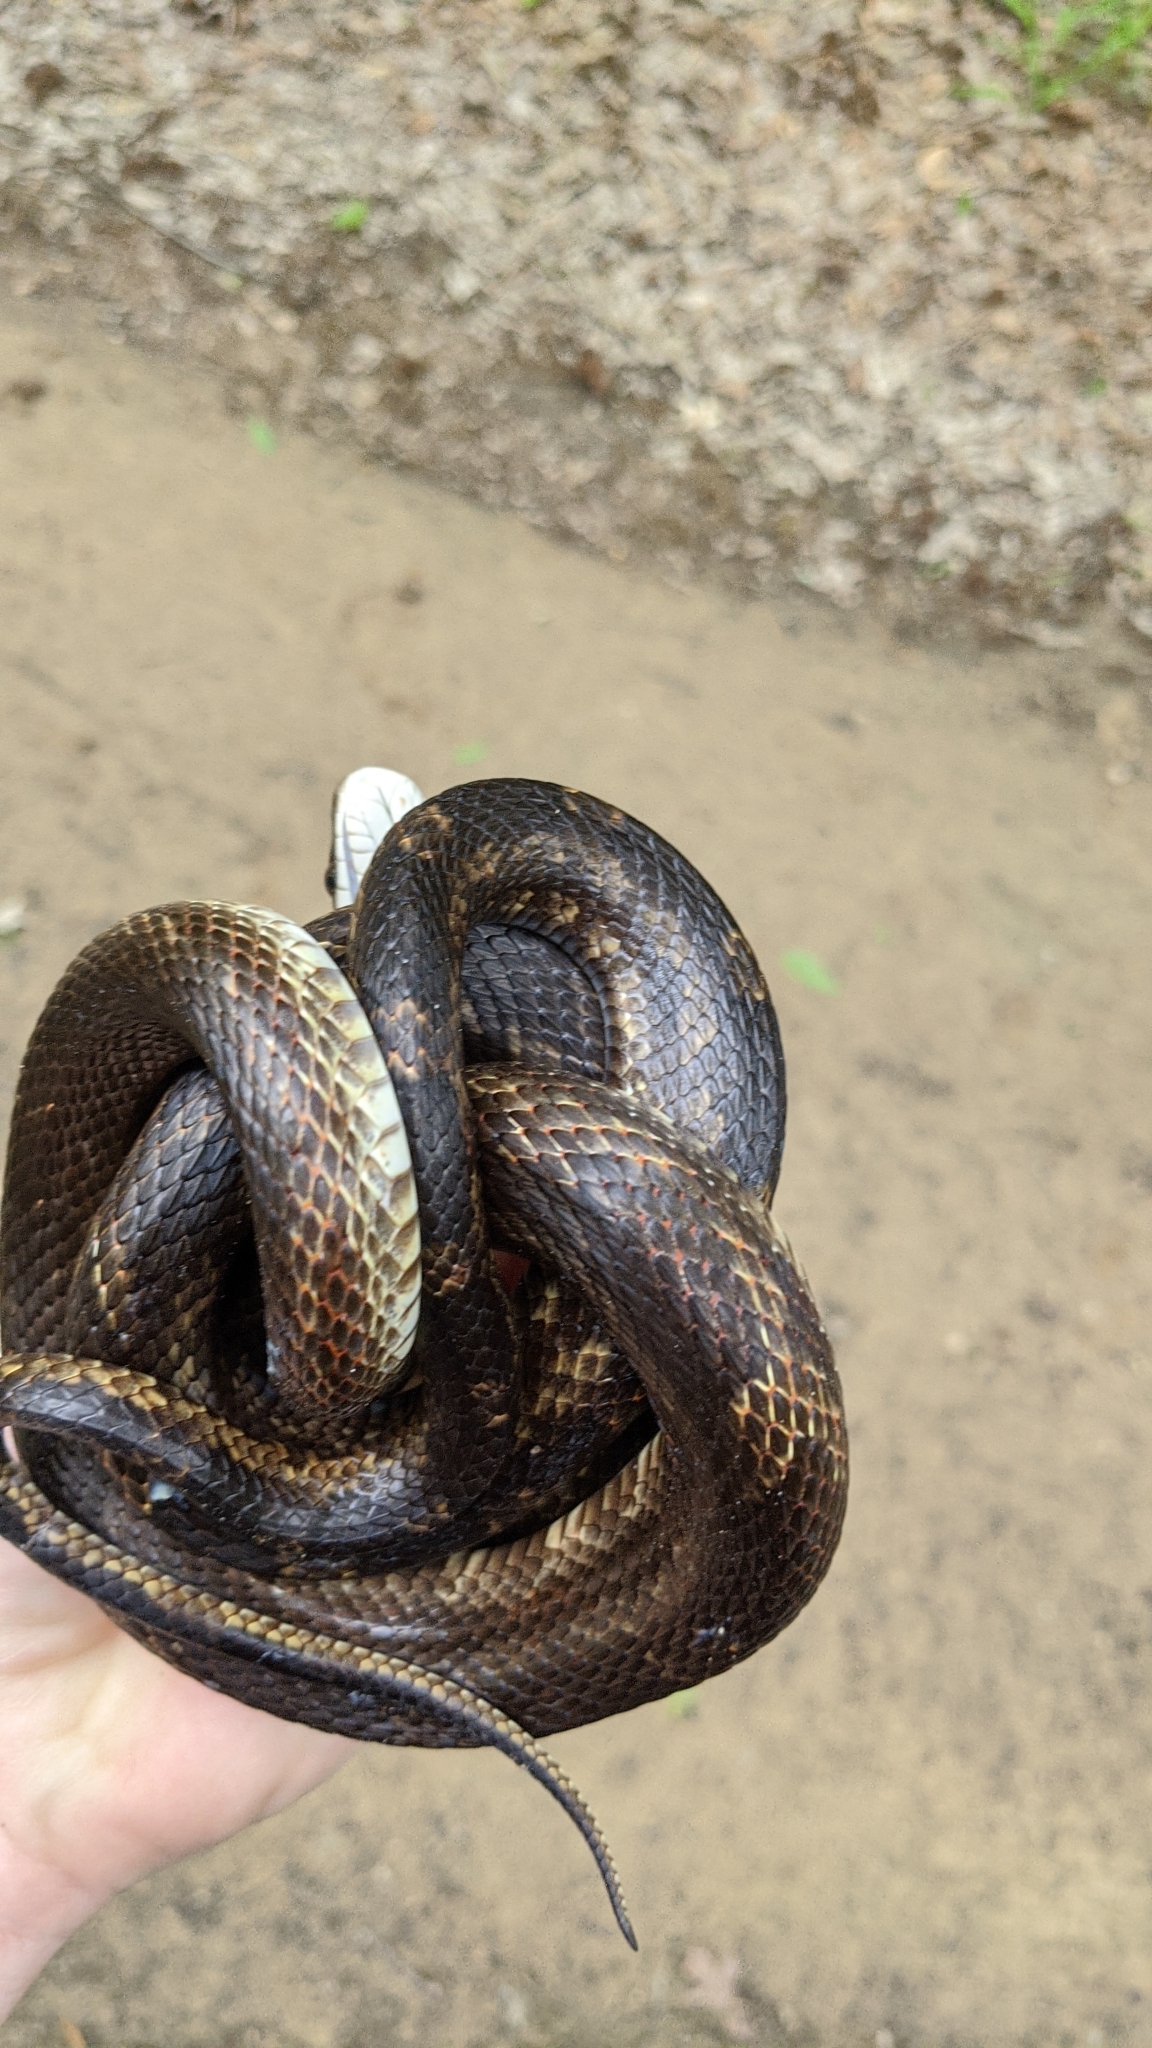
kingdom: Animalia
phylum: Chordata
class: Squamata
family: Colubridae
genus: Pantherophis
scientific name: Pantherophis obsoletus
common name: Black rat snake
